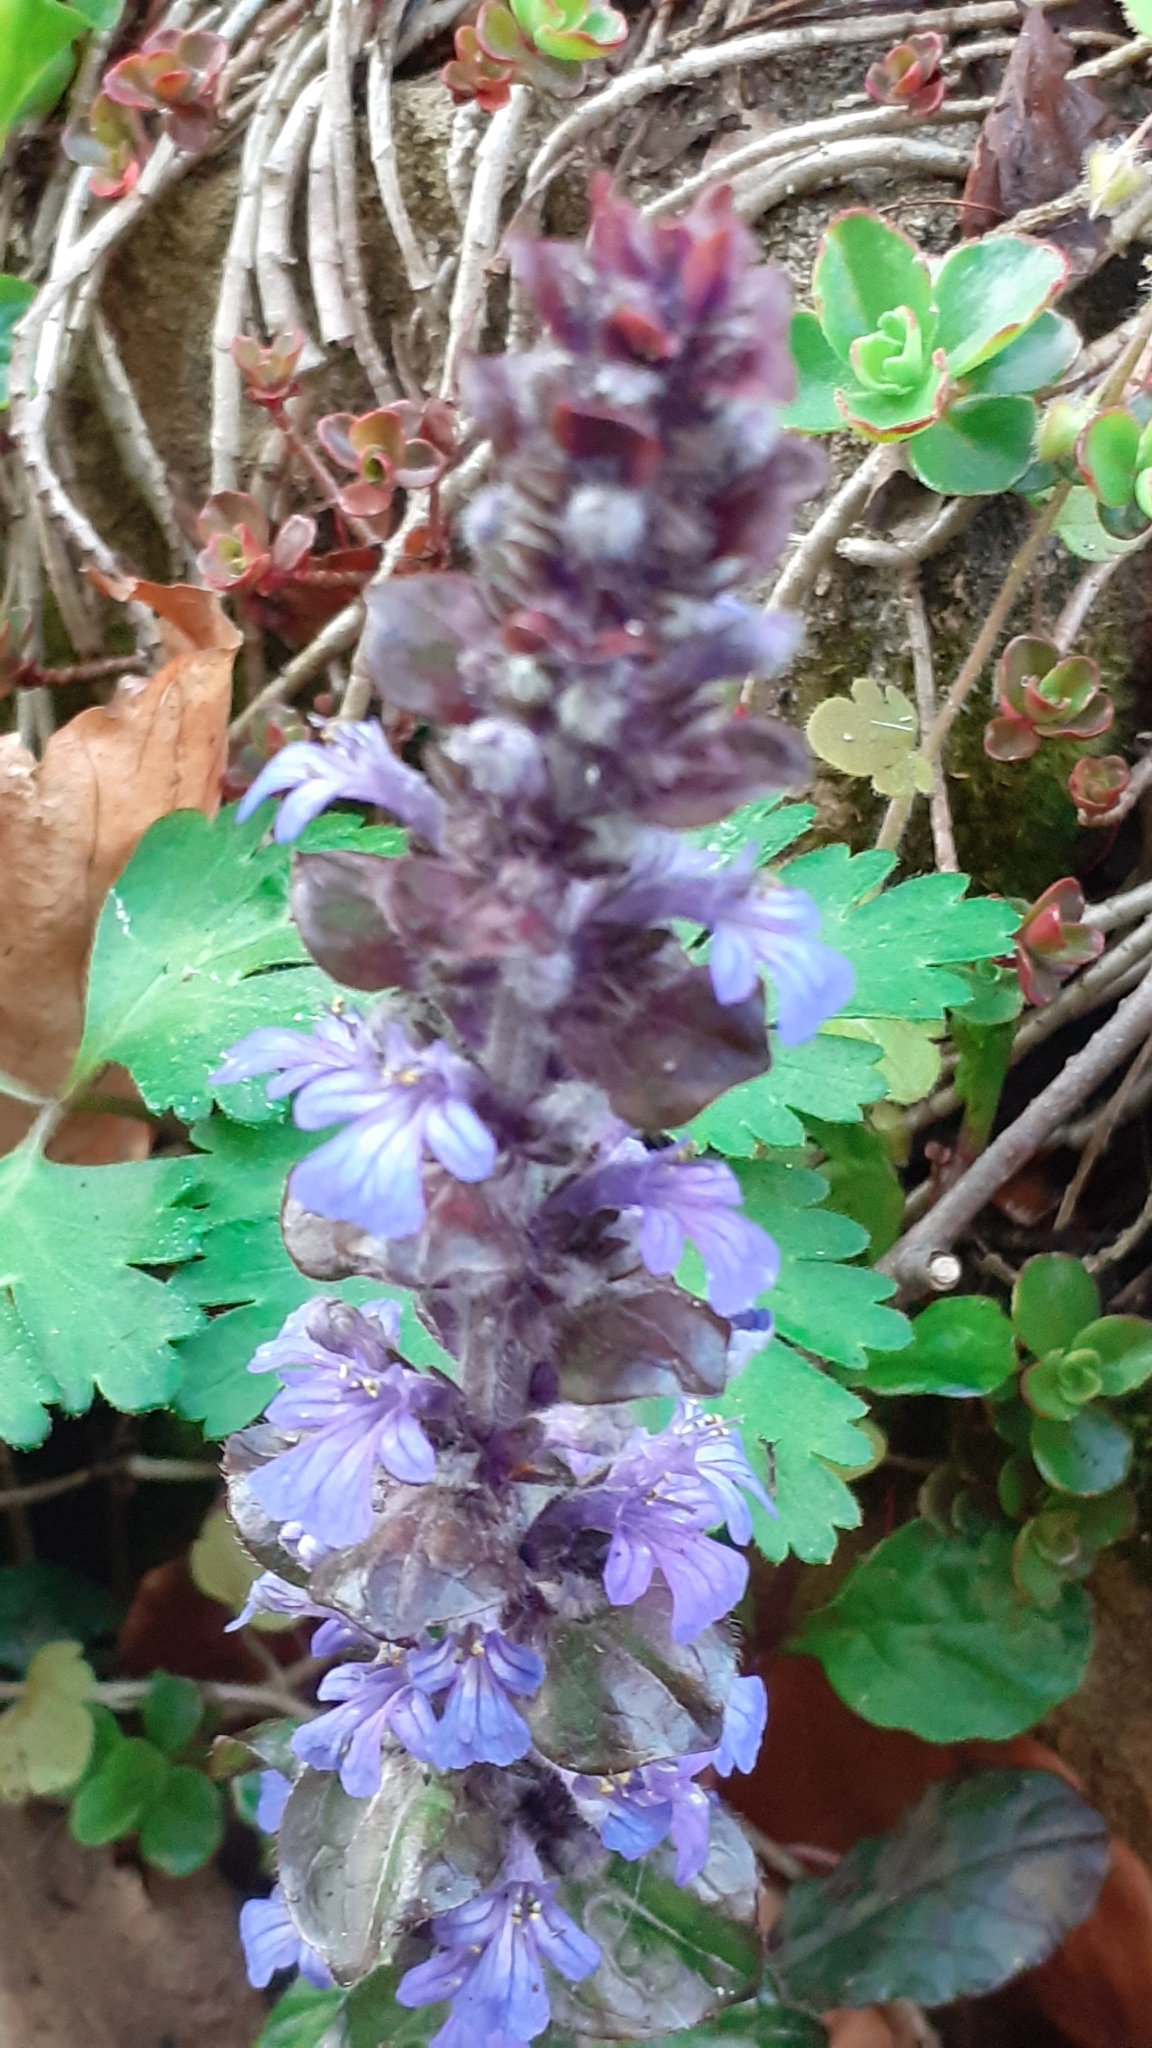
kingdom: Plantae
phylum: Tracheophyta
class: Magnoliopsida
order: Lamiales
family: Lamiaceae
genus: Ajuga
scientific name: Ajuga reptans
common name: Bugle
